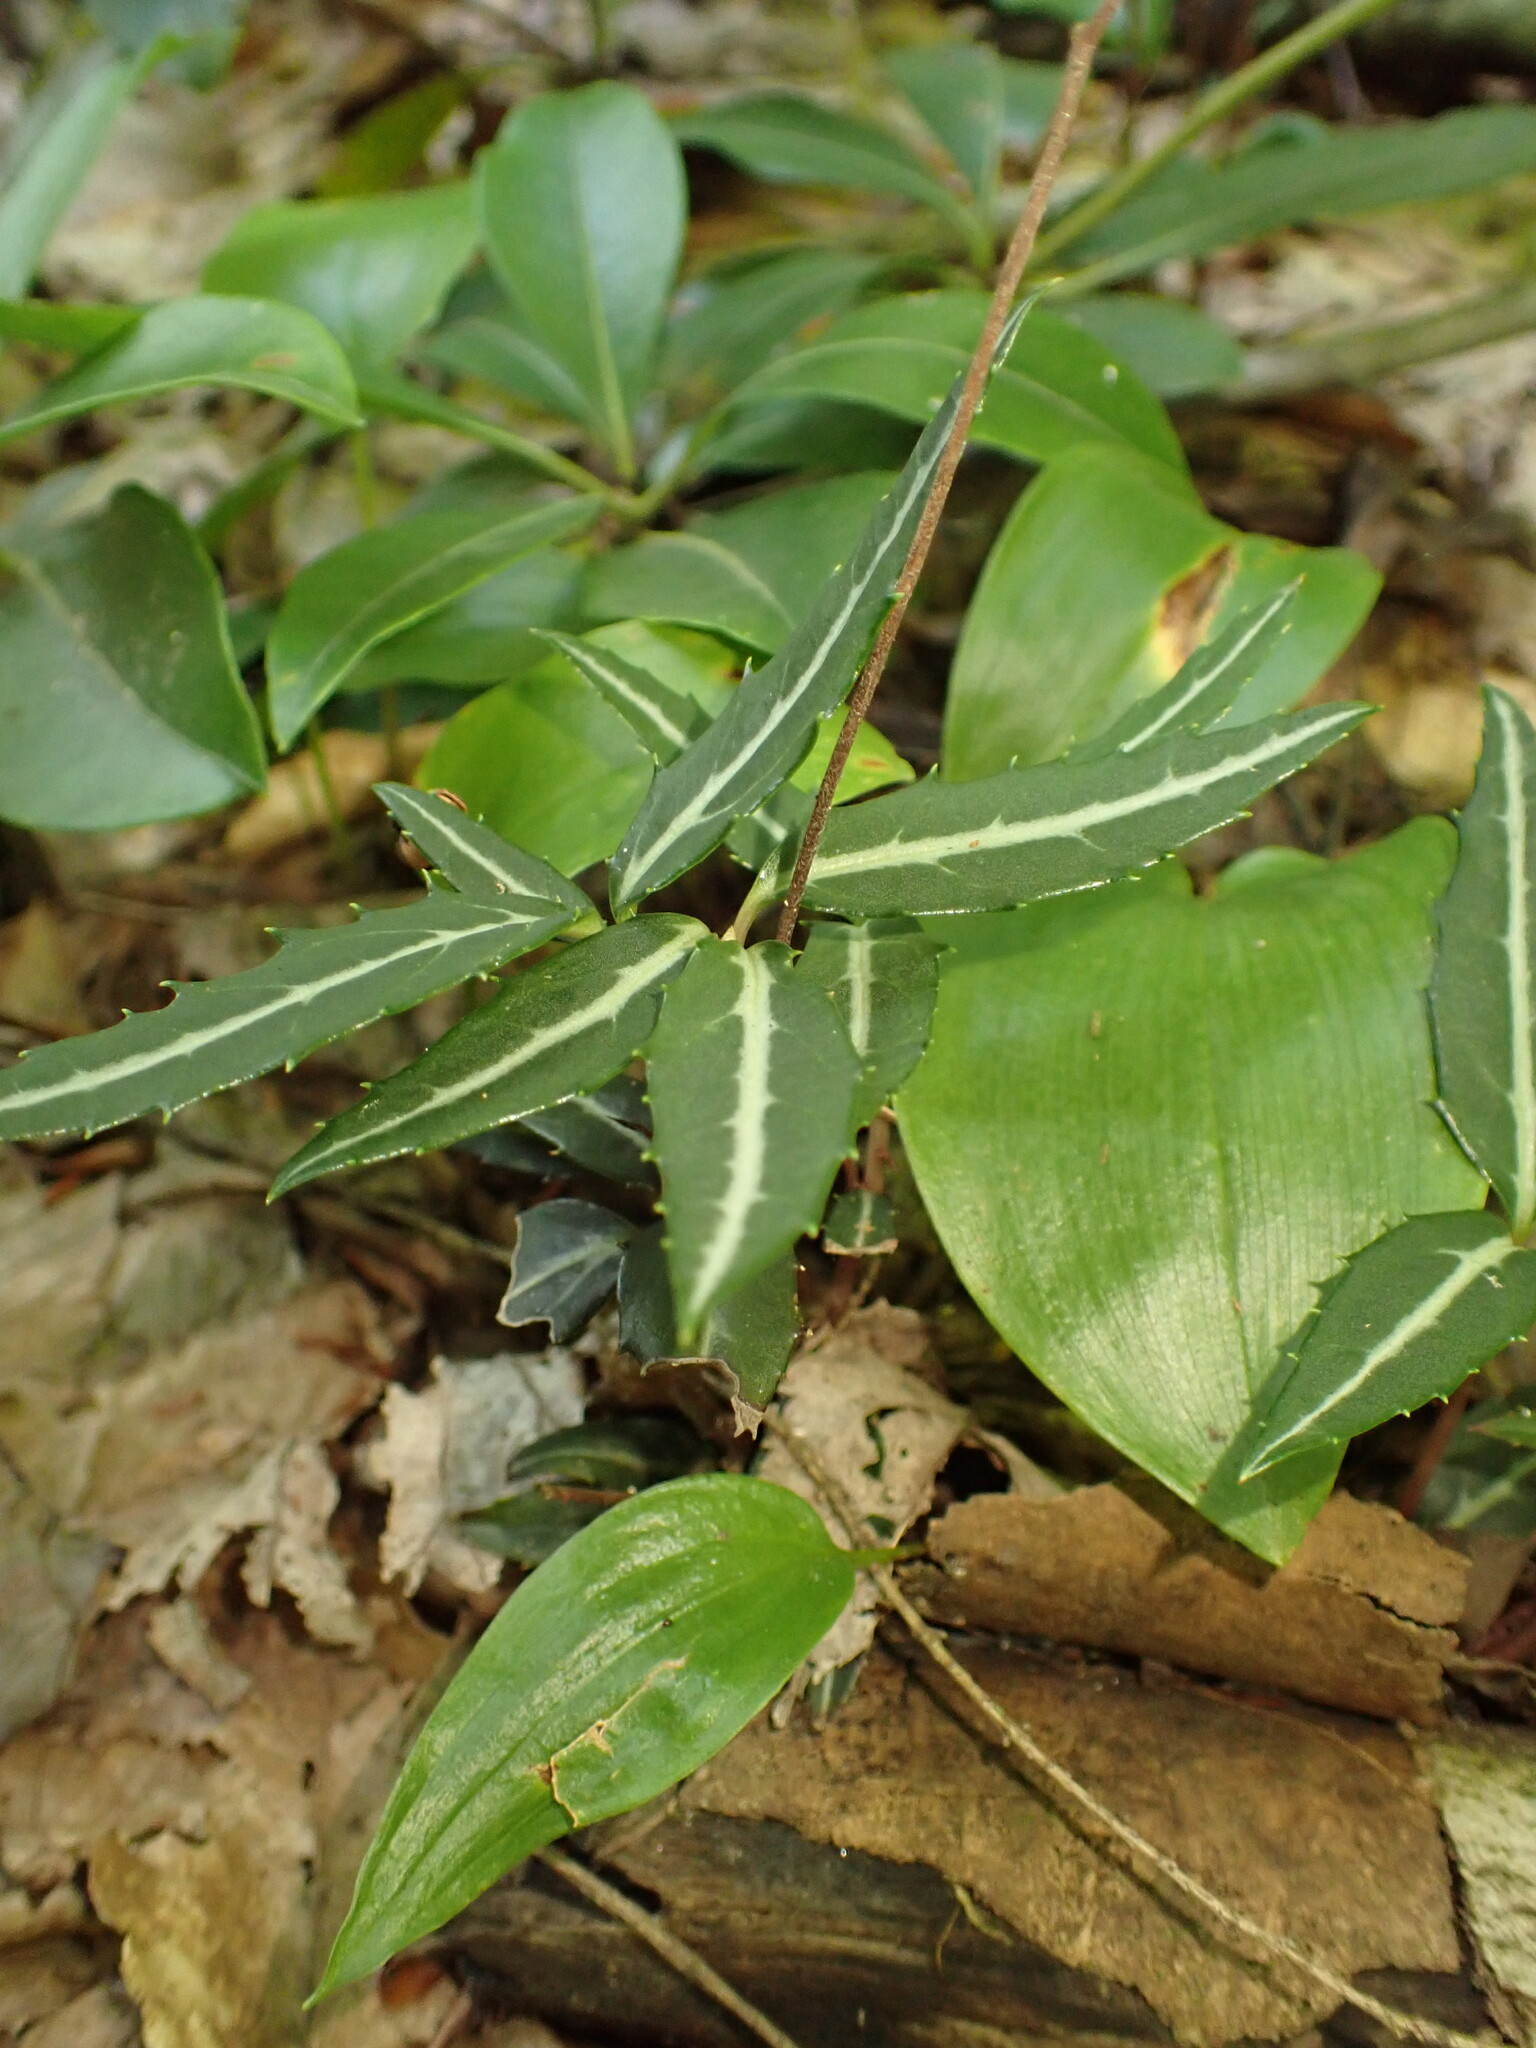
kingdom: Plantae
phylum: Tracheophyta
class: Magnoliopsida
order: Ericales
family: Ericaceae
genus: Chimaphila
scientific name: Chimaphila maculata
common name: Spotted pipsissewa
